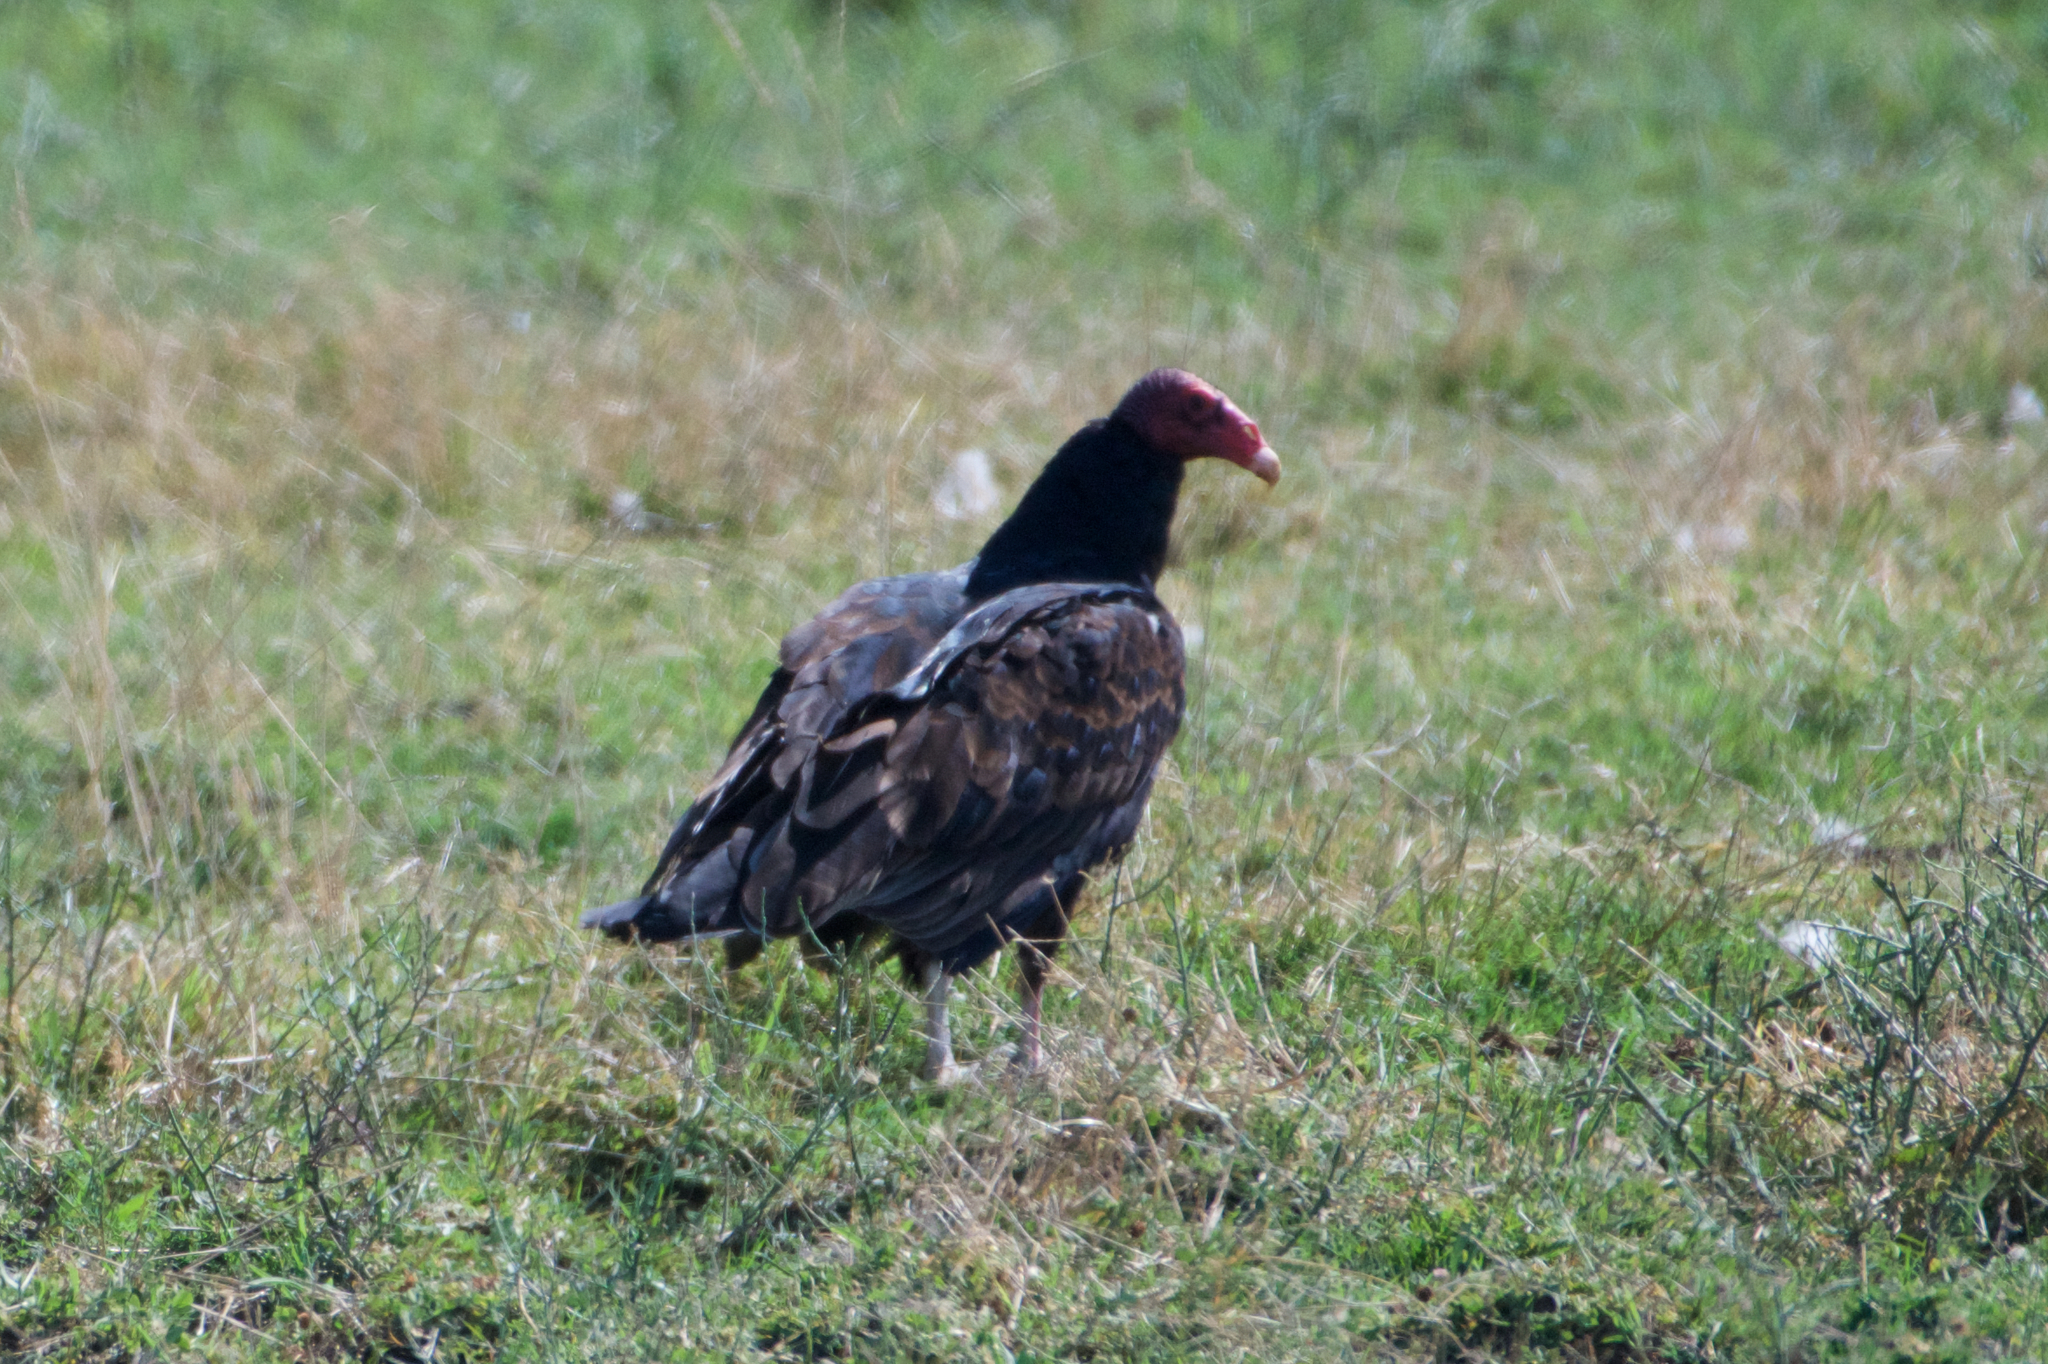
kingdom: Animalia
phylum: Chordata
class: Aves
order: Accipitriformes
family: Cathartidae
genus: Cathartes
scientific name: Cathartes aura
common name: Turkey vulture
